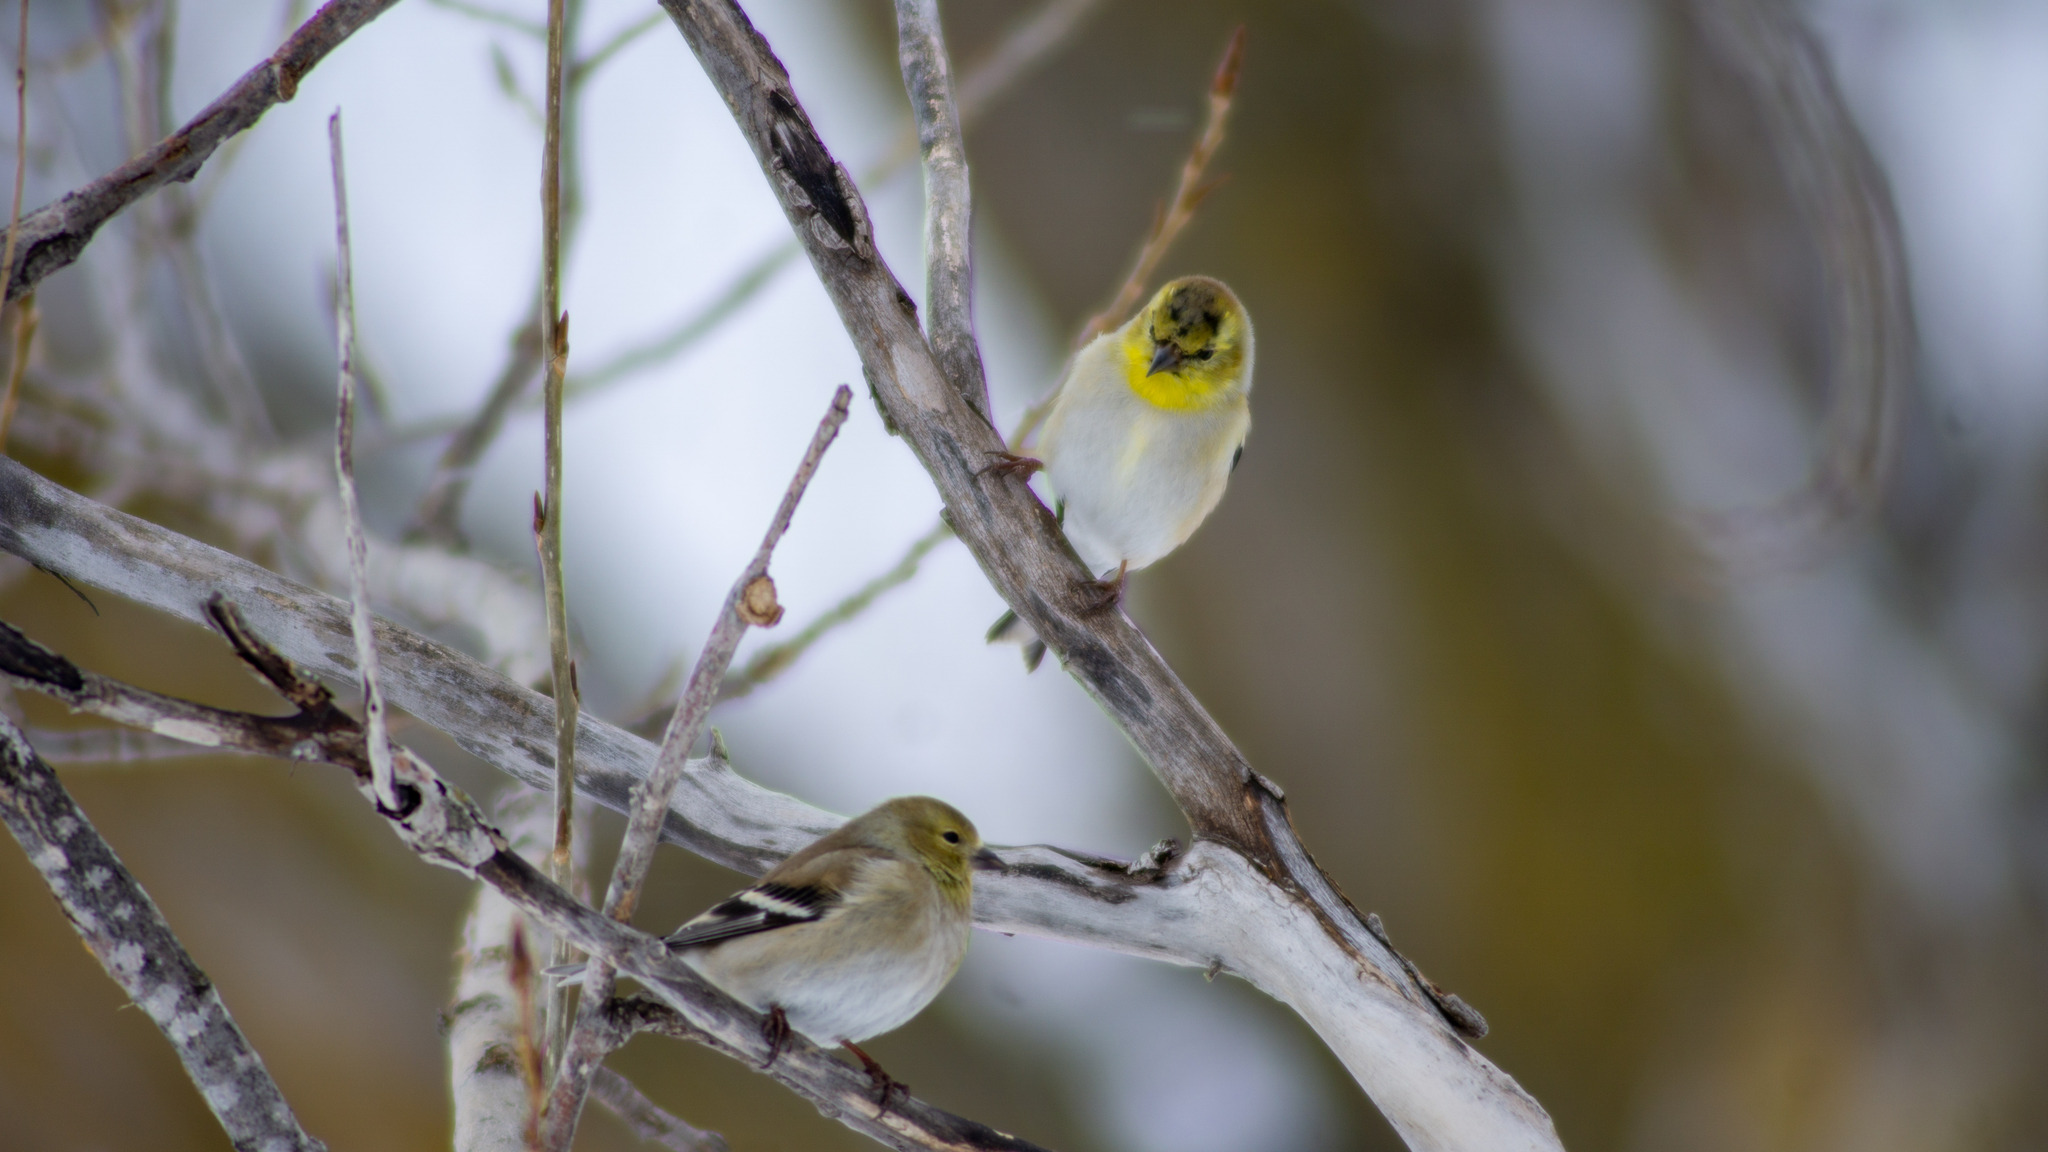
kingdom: Animalia
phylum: Chordata
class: Aves
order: Passeriformes
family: Fringillidae
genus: Spinus
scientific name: Spinus tristis
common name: American goldfinch
